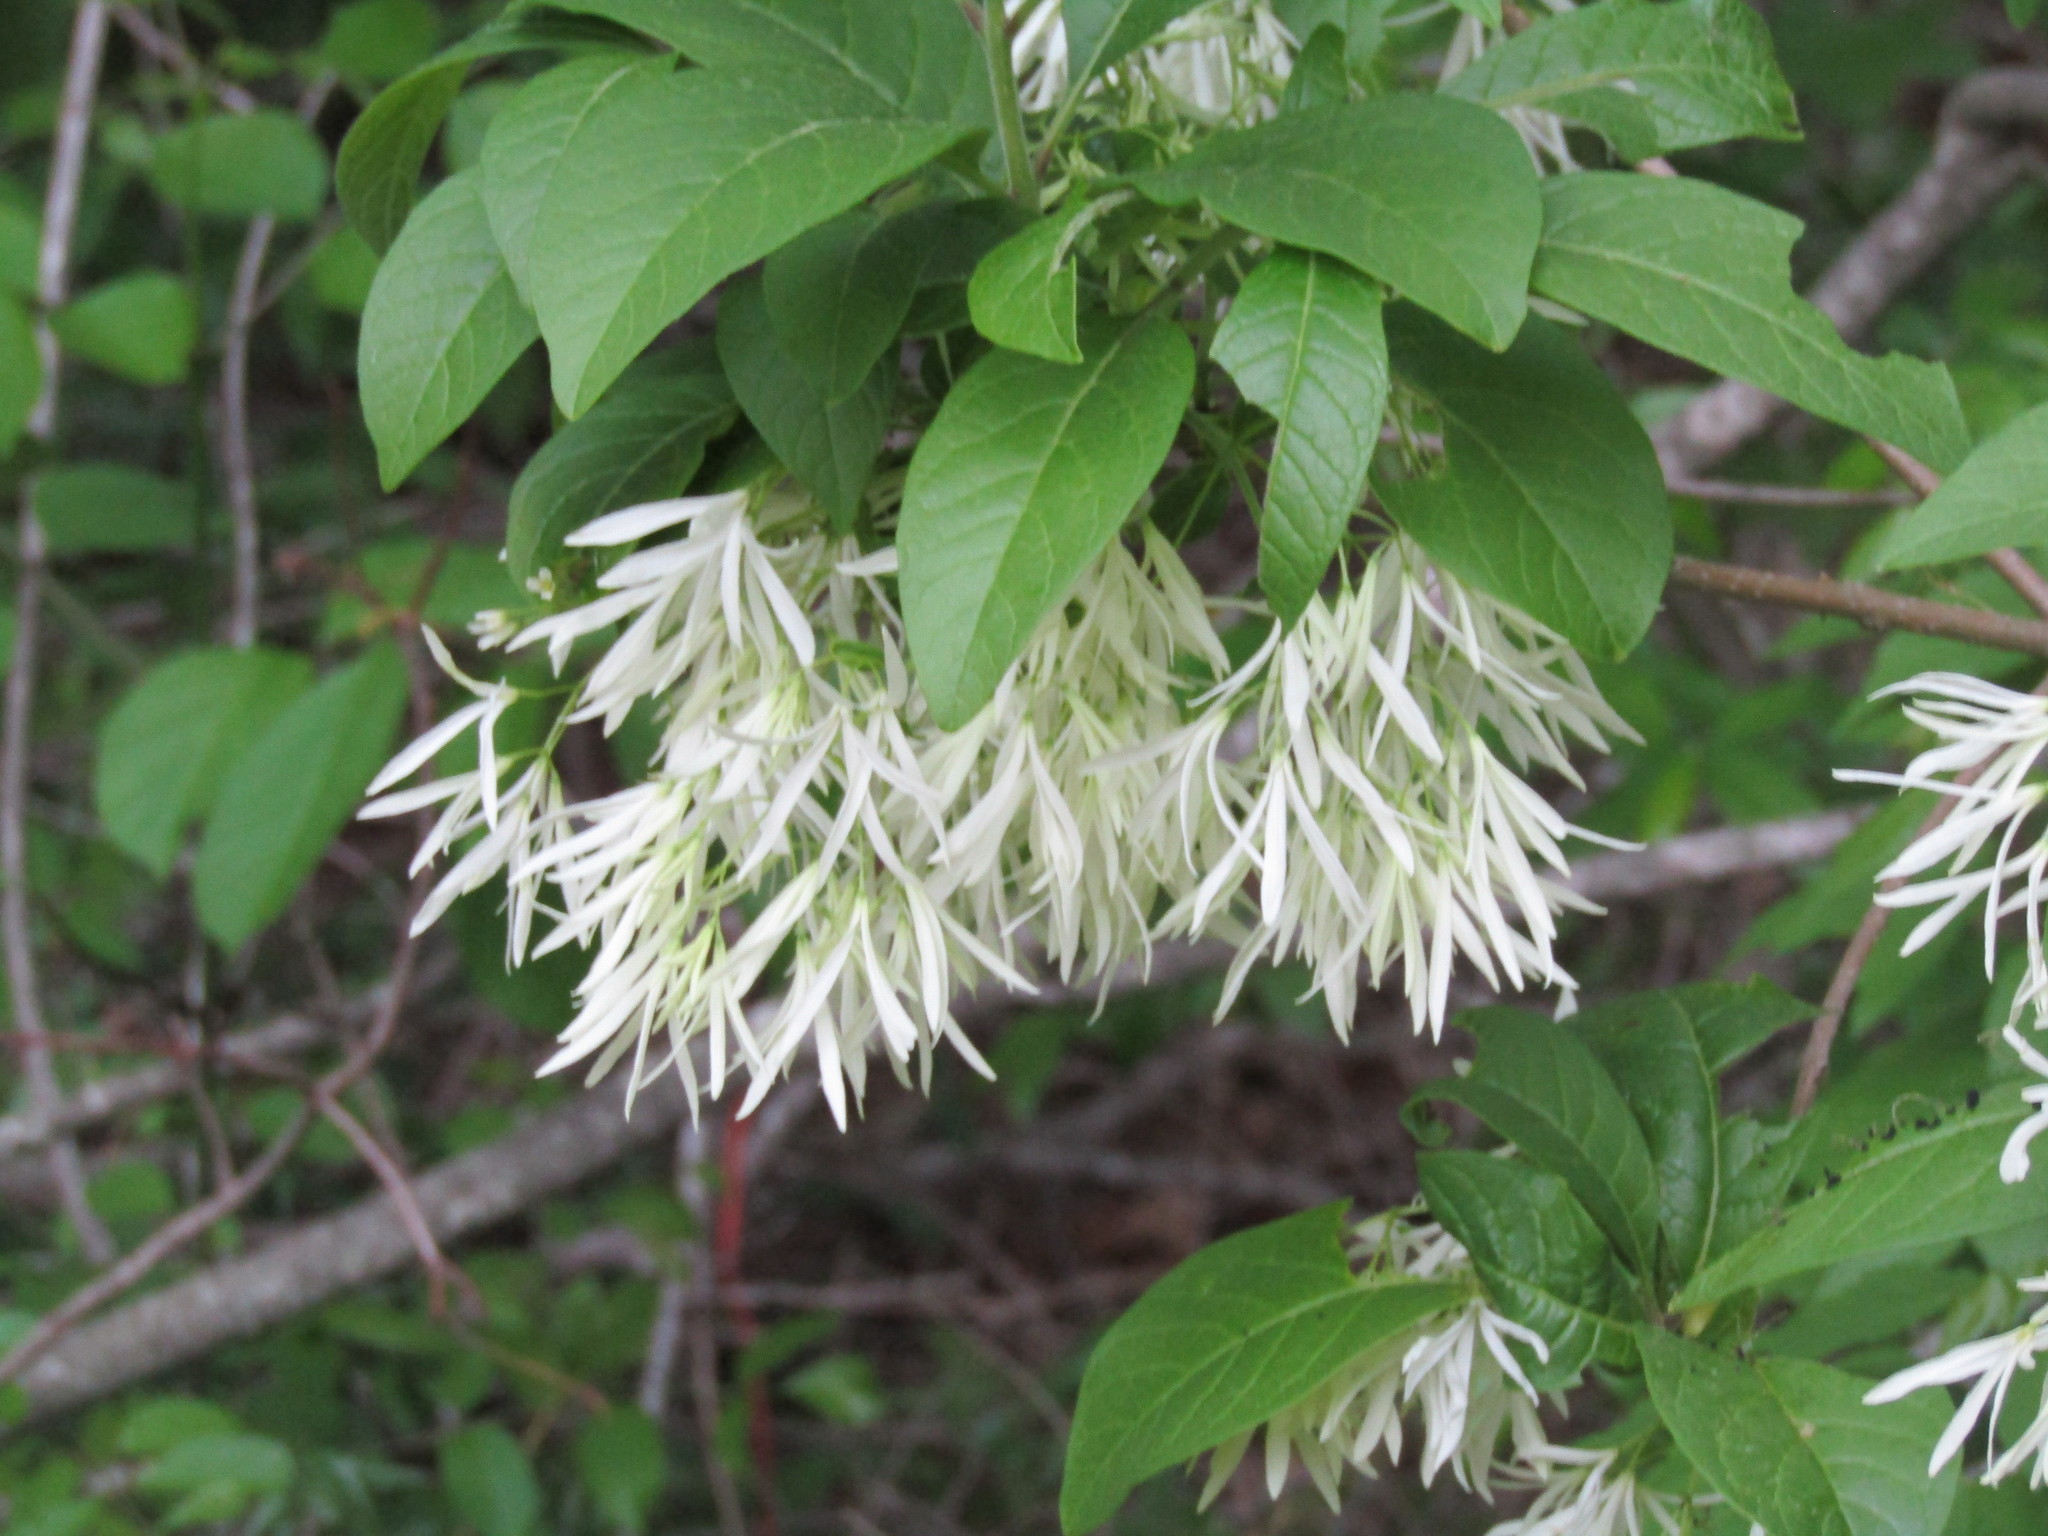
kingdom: Plantae
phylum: Tracheophyta
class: Magnoliopsida
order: Lamiales
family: Oleaceae
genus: Chionanthus
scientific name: Chionanthus virginicus
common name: American fringetree
